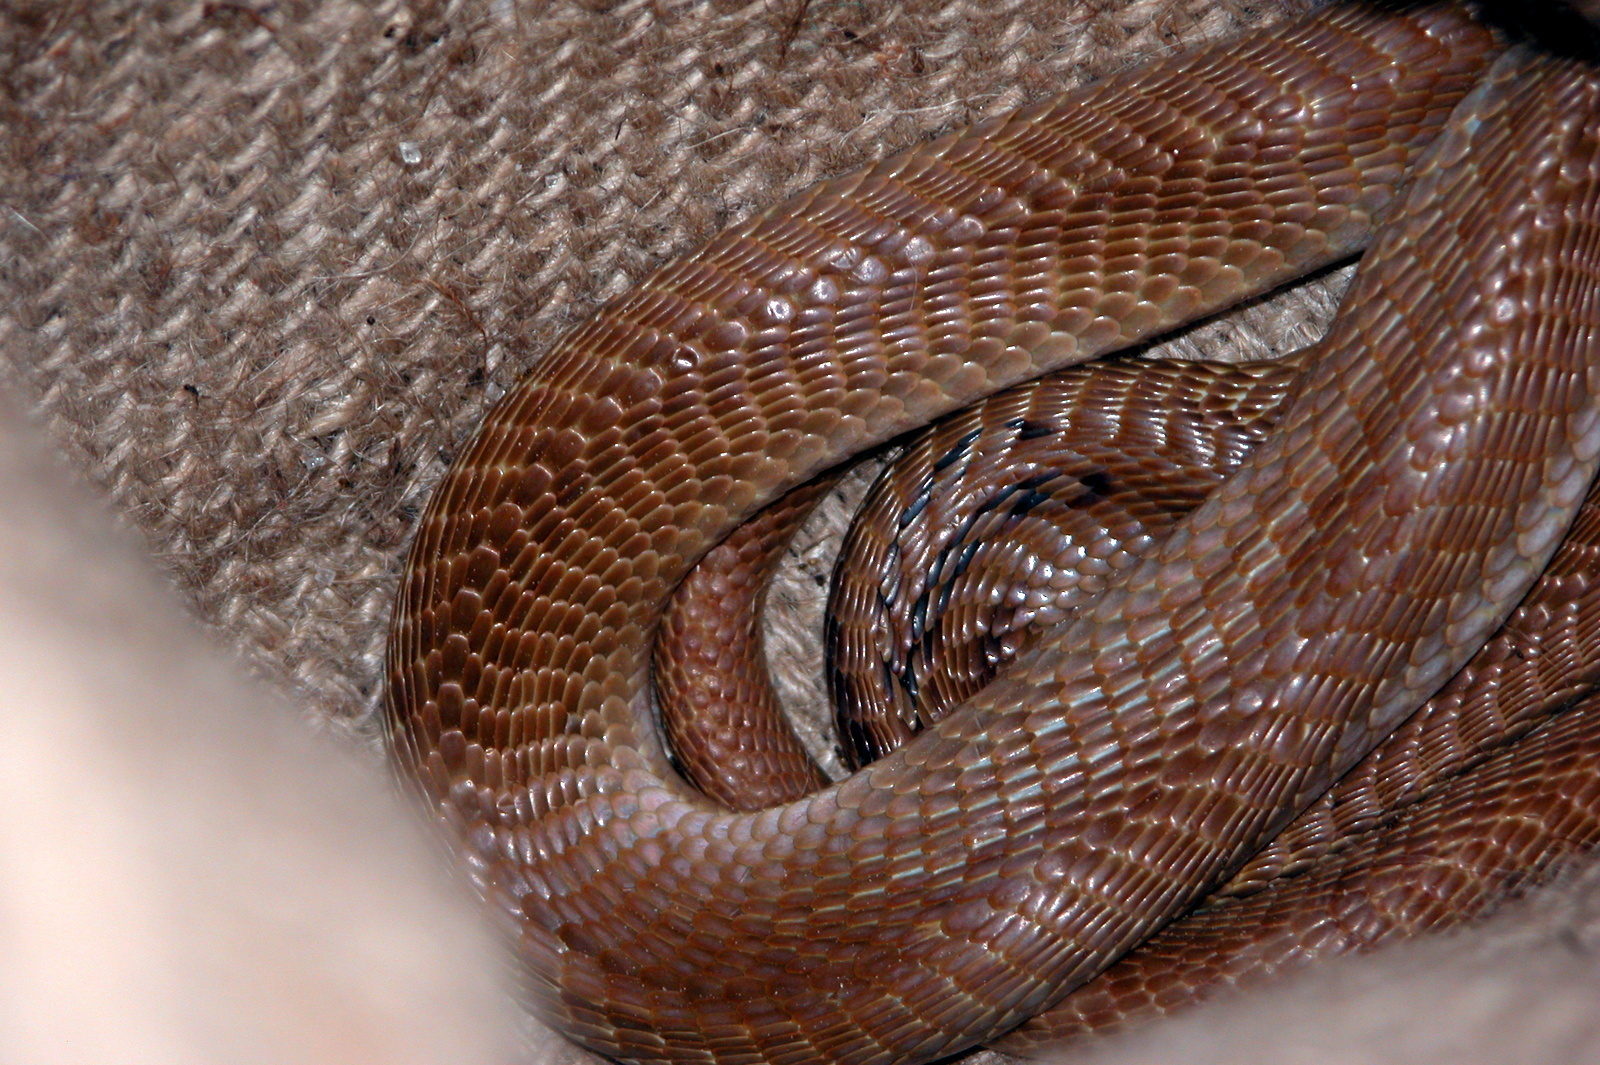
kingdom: Animalia
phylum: Chordata
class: Squamata
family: Elapidae
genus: Naja
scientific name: Naja naja
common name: Indian cobra
